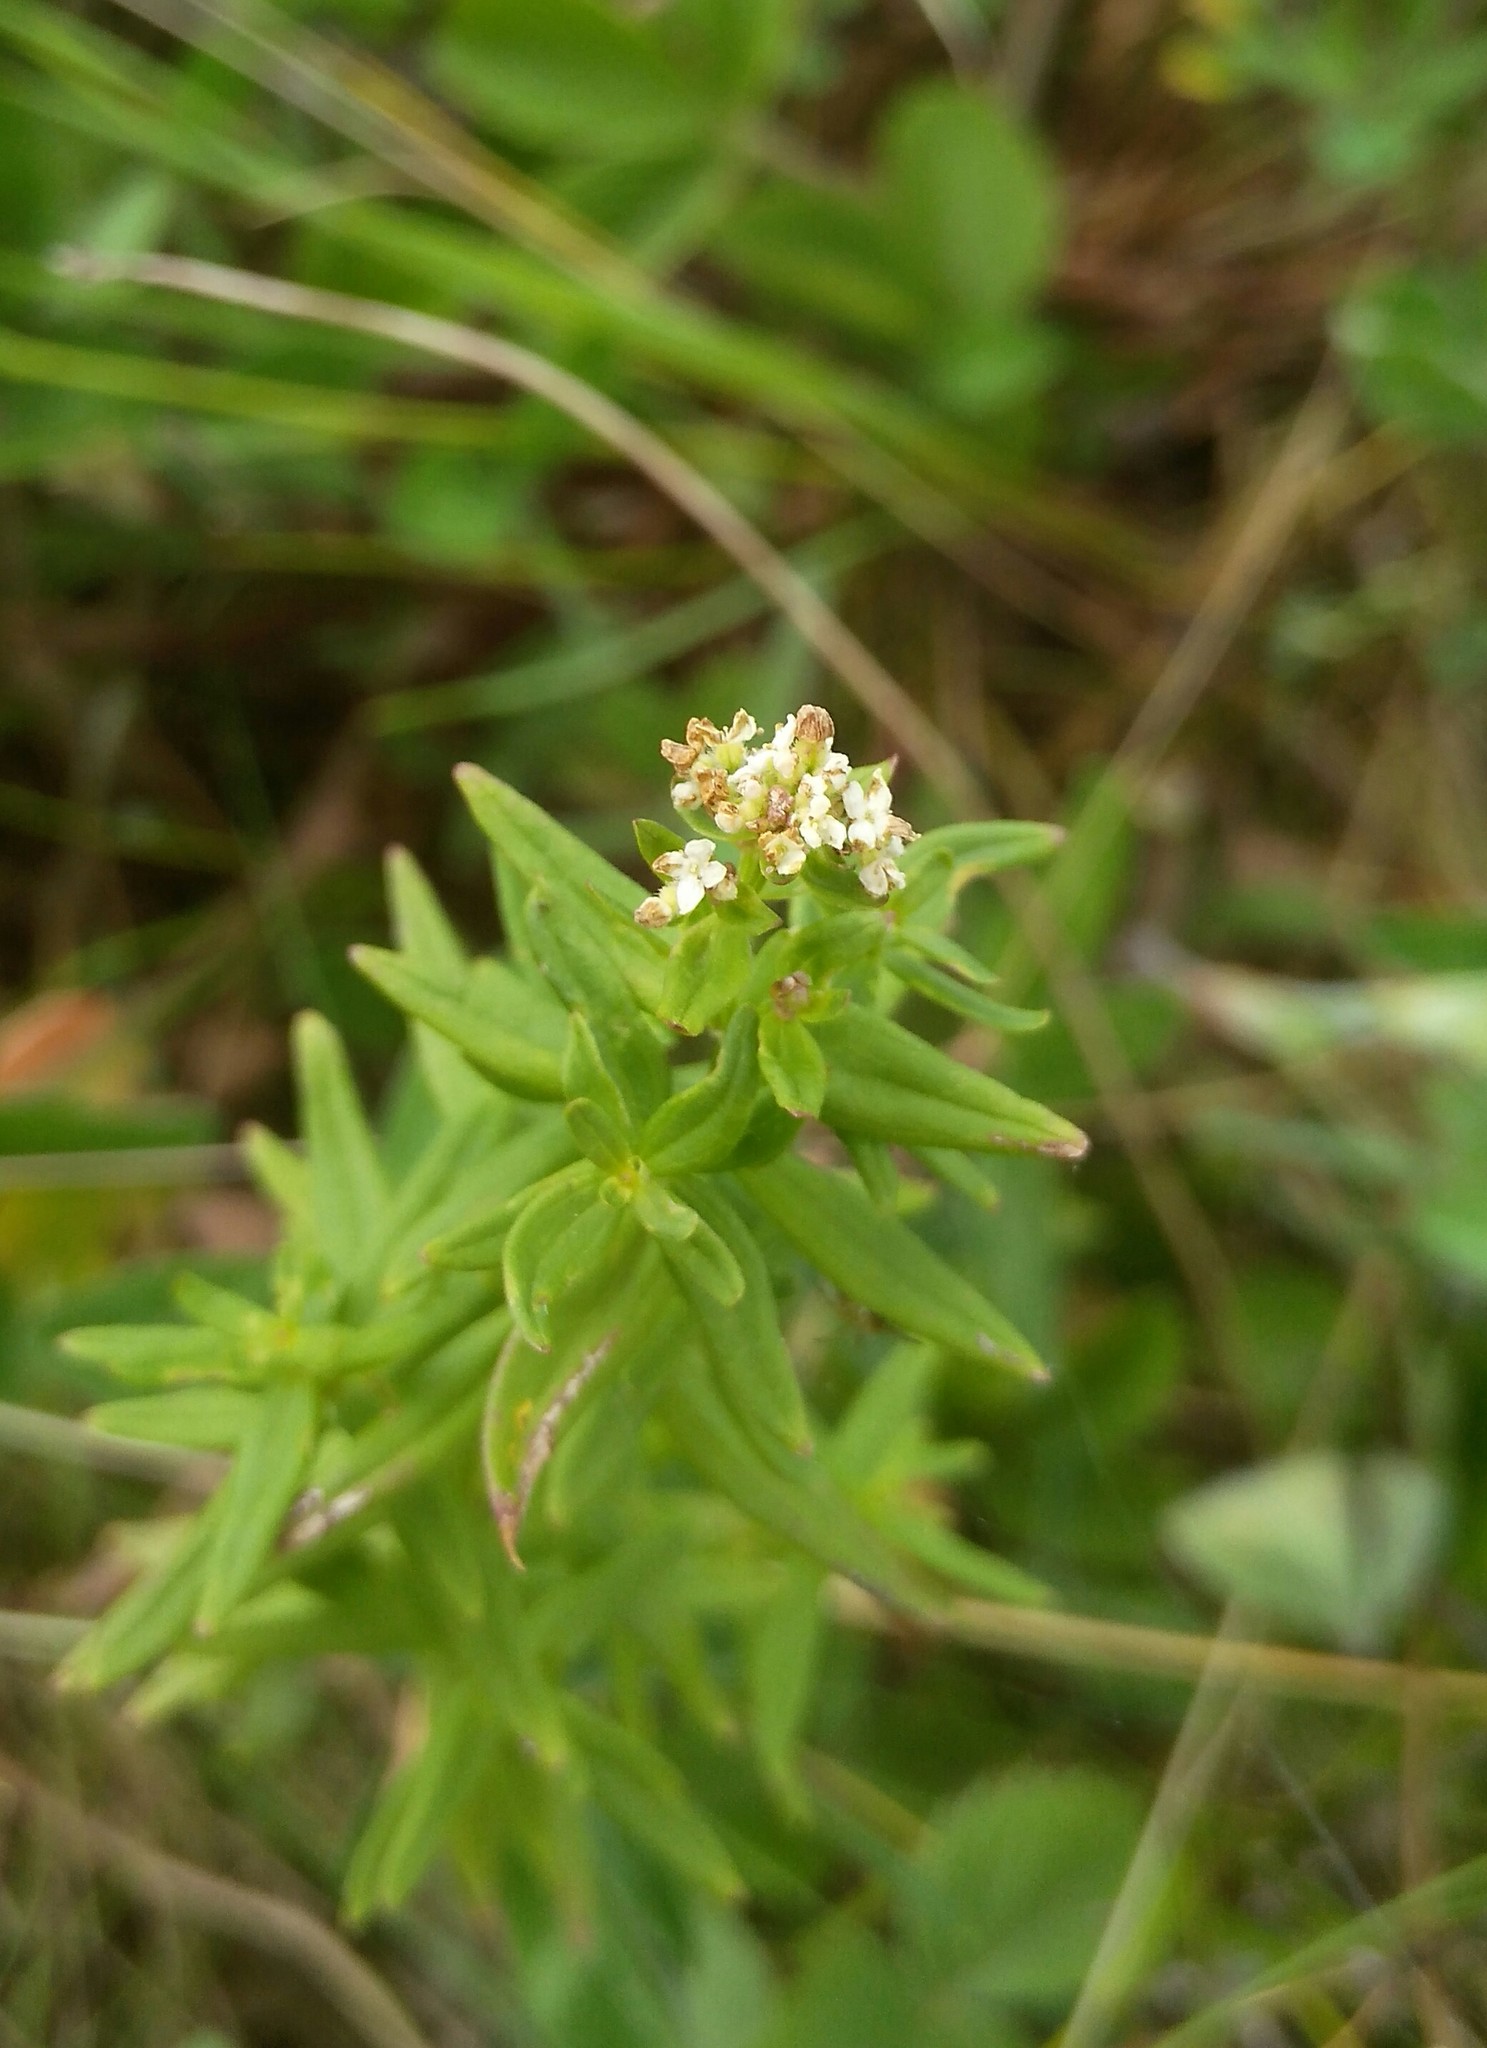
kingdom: Plantae
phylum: Tracheophyta
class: Magnoliopsida
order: Gentianales
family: Rubiaceae
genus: Galium
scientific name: Galium boreale
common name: Northern bedstraw
